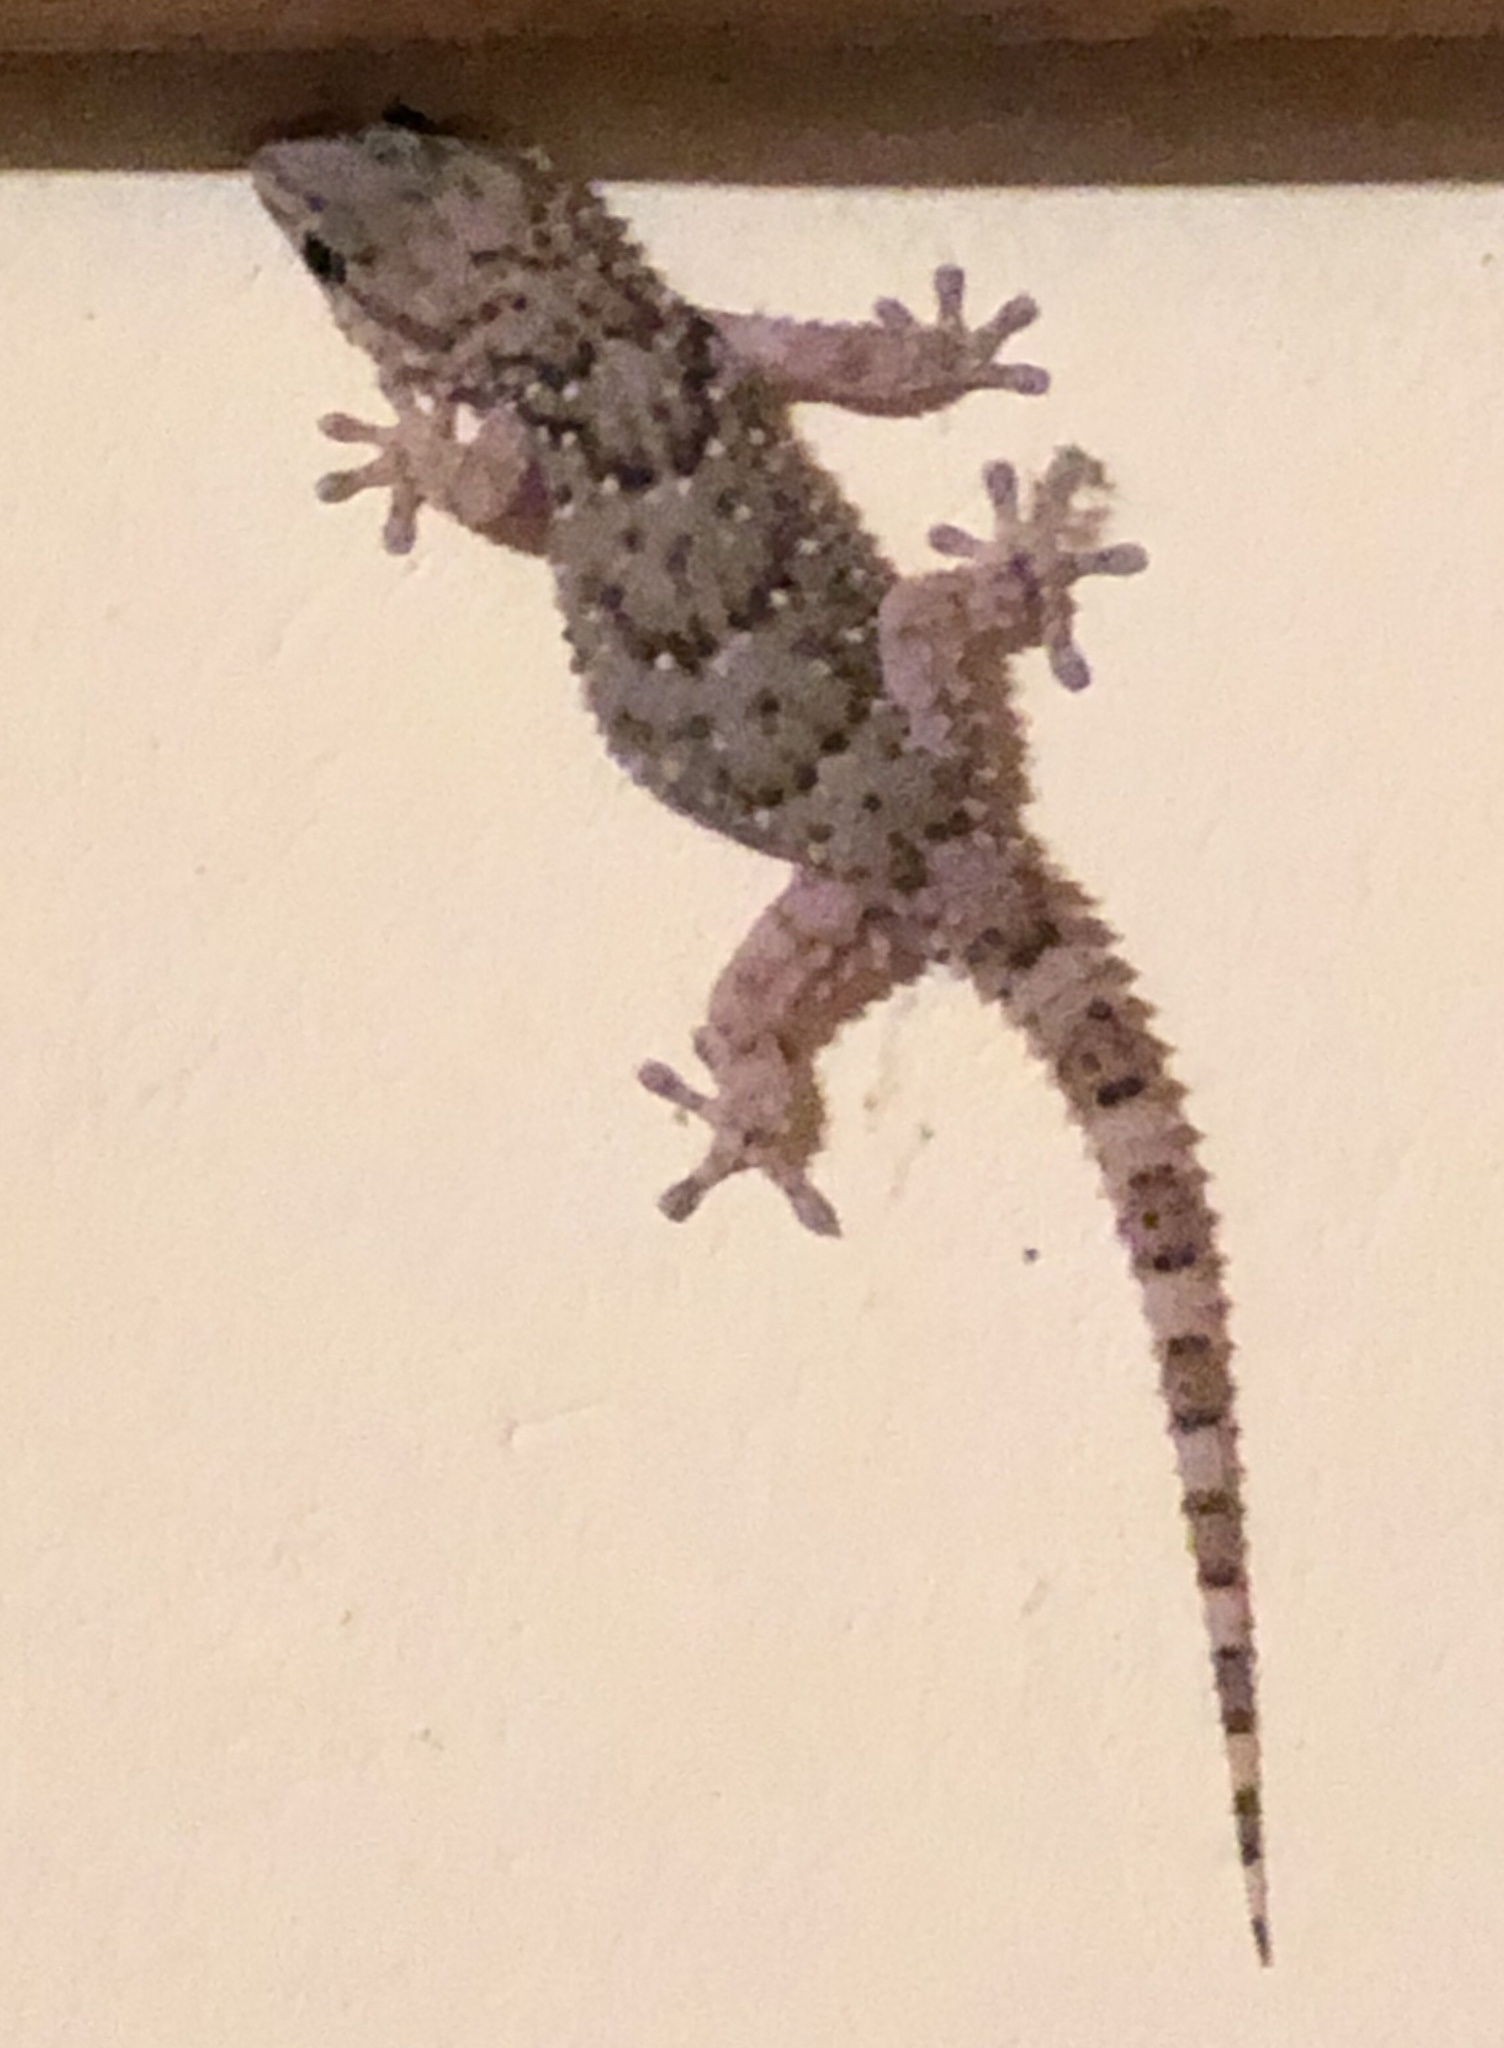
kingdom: Animalia
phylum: Chordata
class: Squamata
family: Gekkonidae
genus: Chondrodactylus
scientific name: Chondrodactylus bibronii
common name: Bibron's gecko
